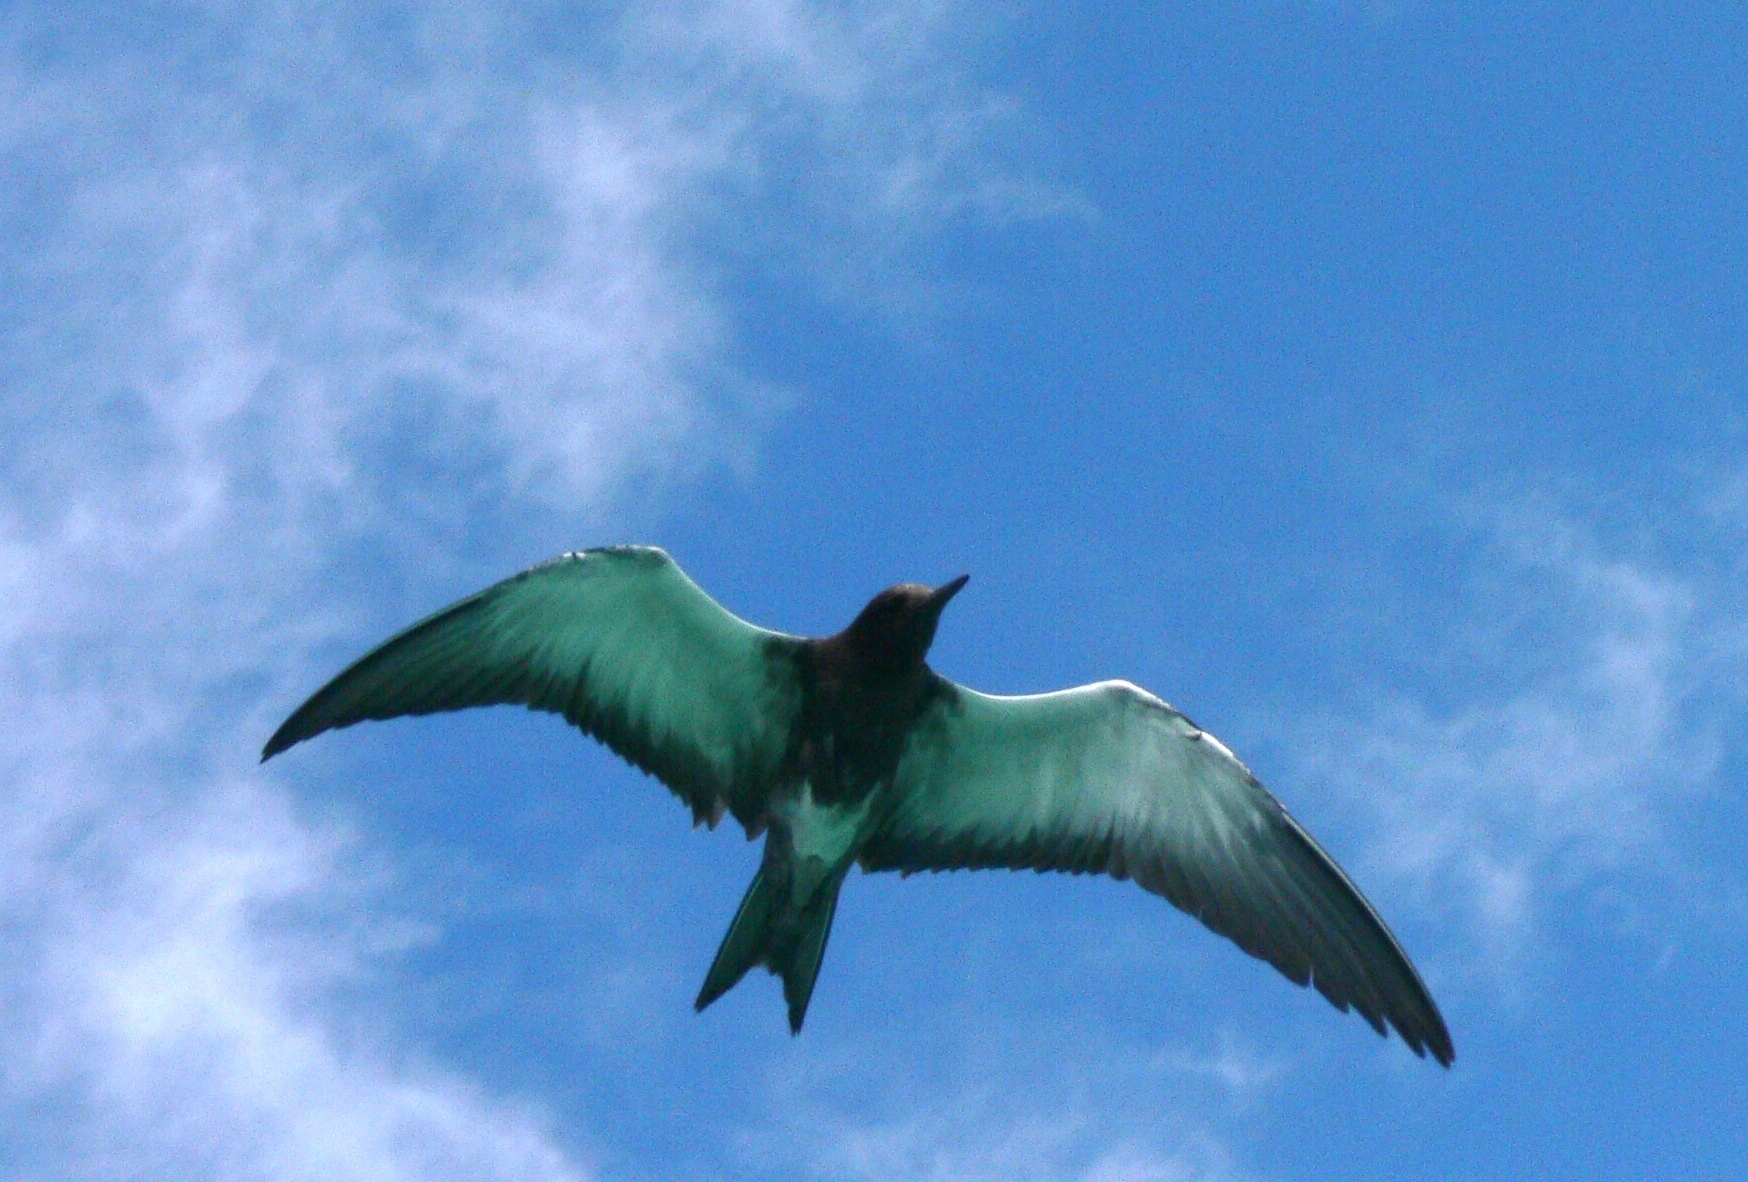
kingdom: Animalia
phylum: Chordata
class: Aves
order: Charadriiformes
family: Laridae
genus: Anous
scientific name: Anous stolidus
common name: Brown noddy
